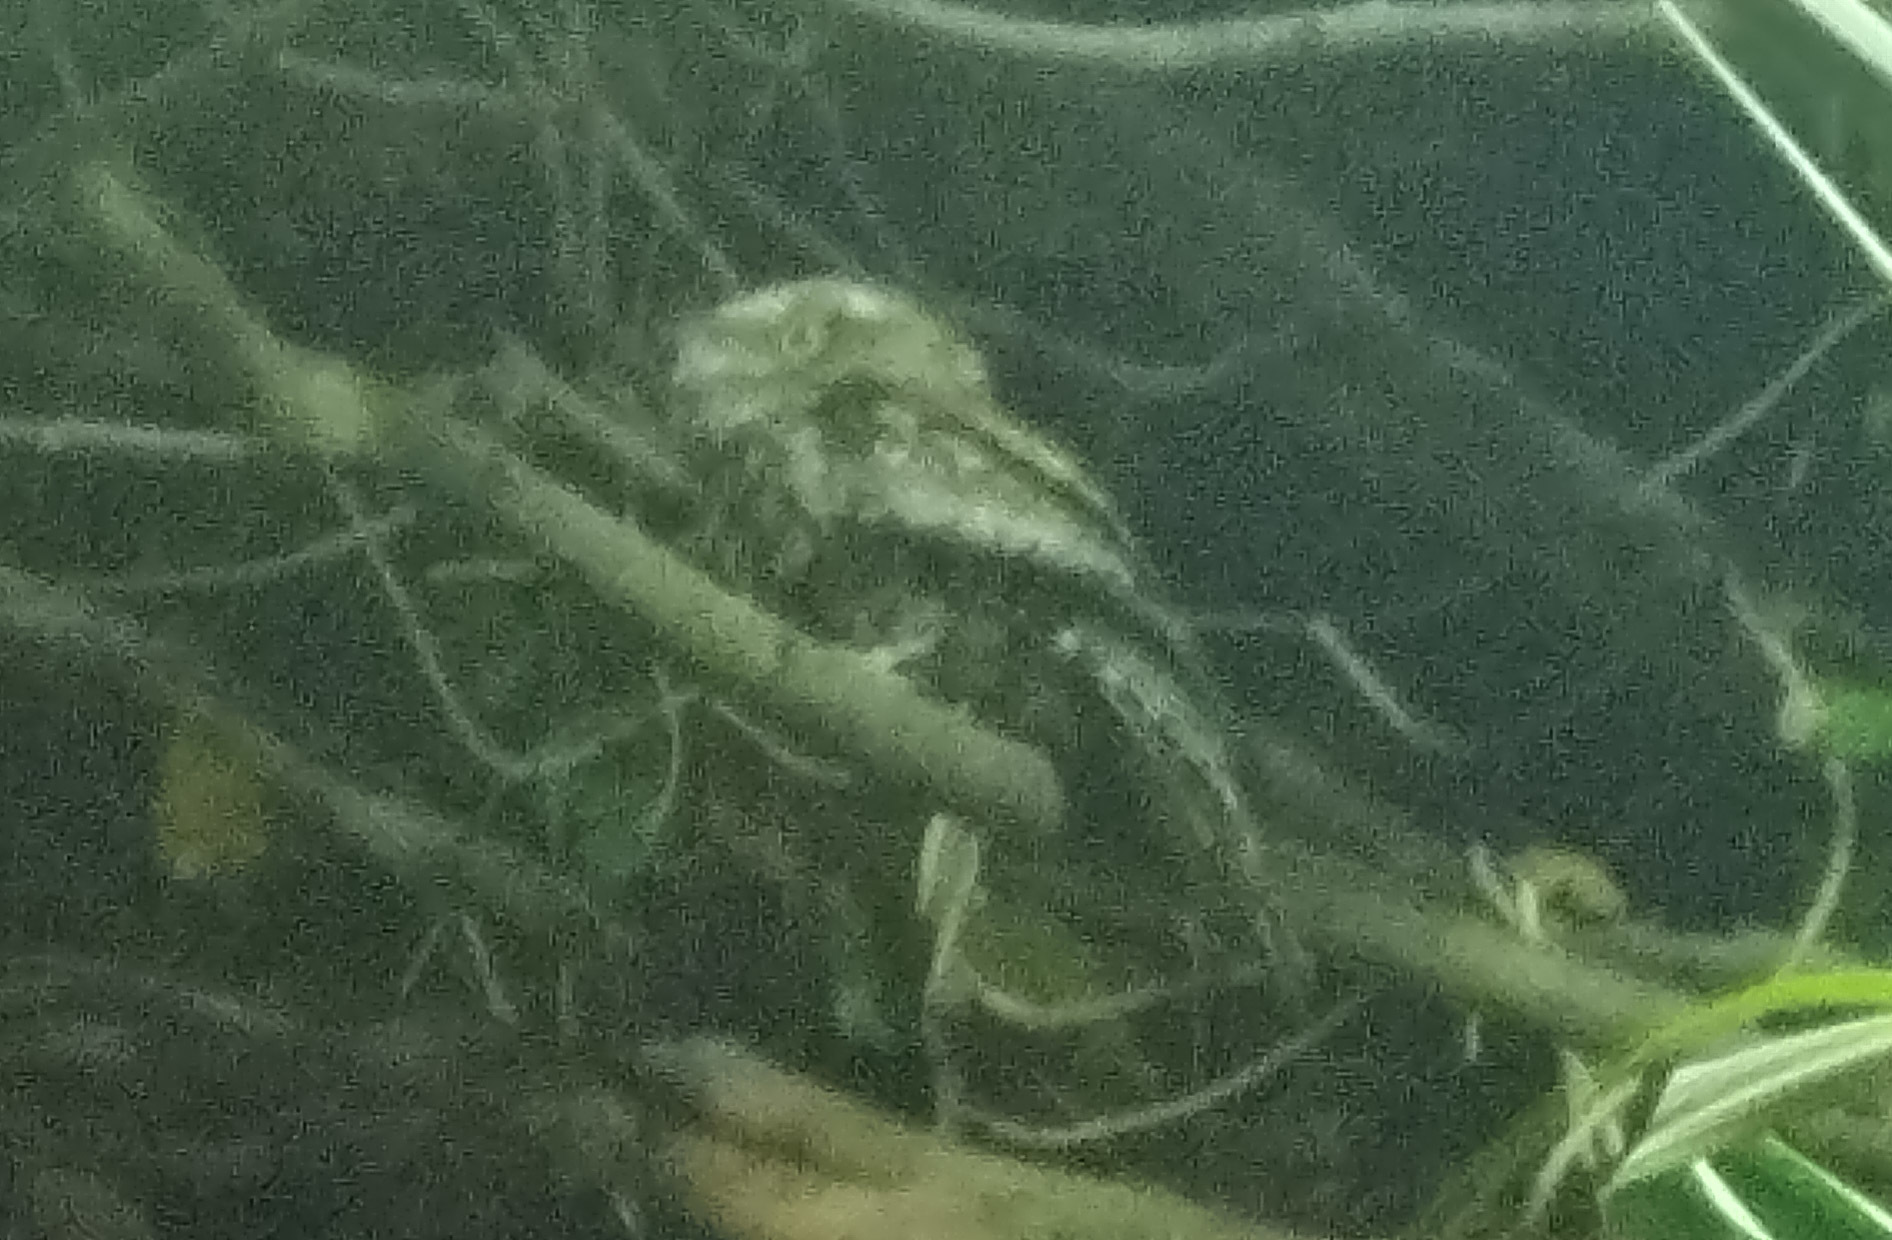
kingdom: Animalia
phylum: Chordata
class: Aves
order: Caprimulgiformes
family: Podargidae
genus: Podargus
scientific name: Podargus strigoides
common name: Tawny frogmouth
